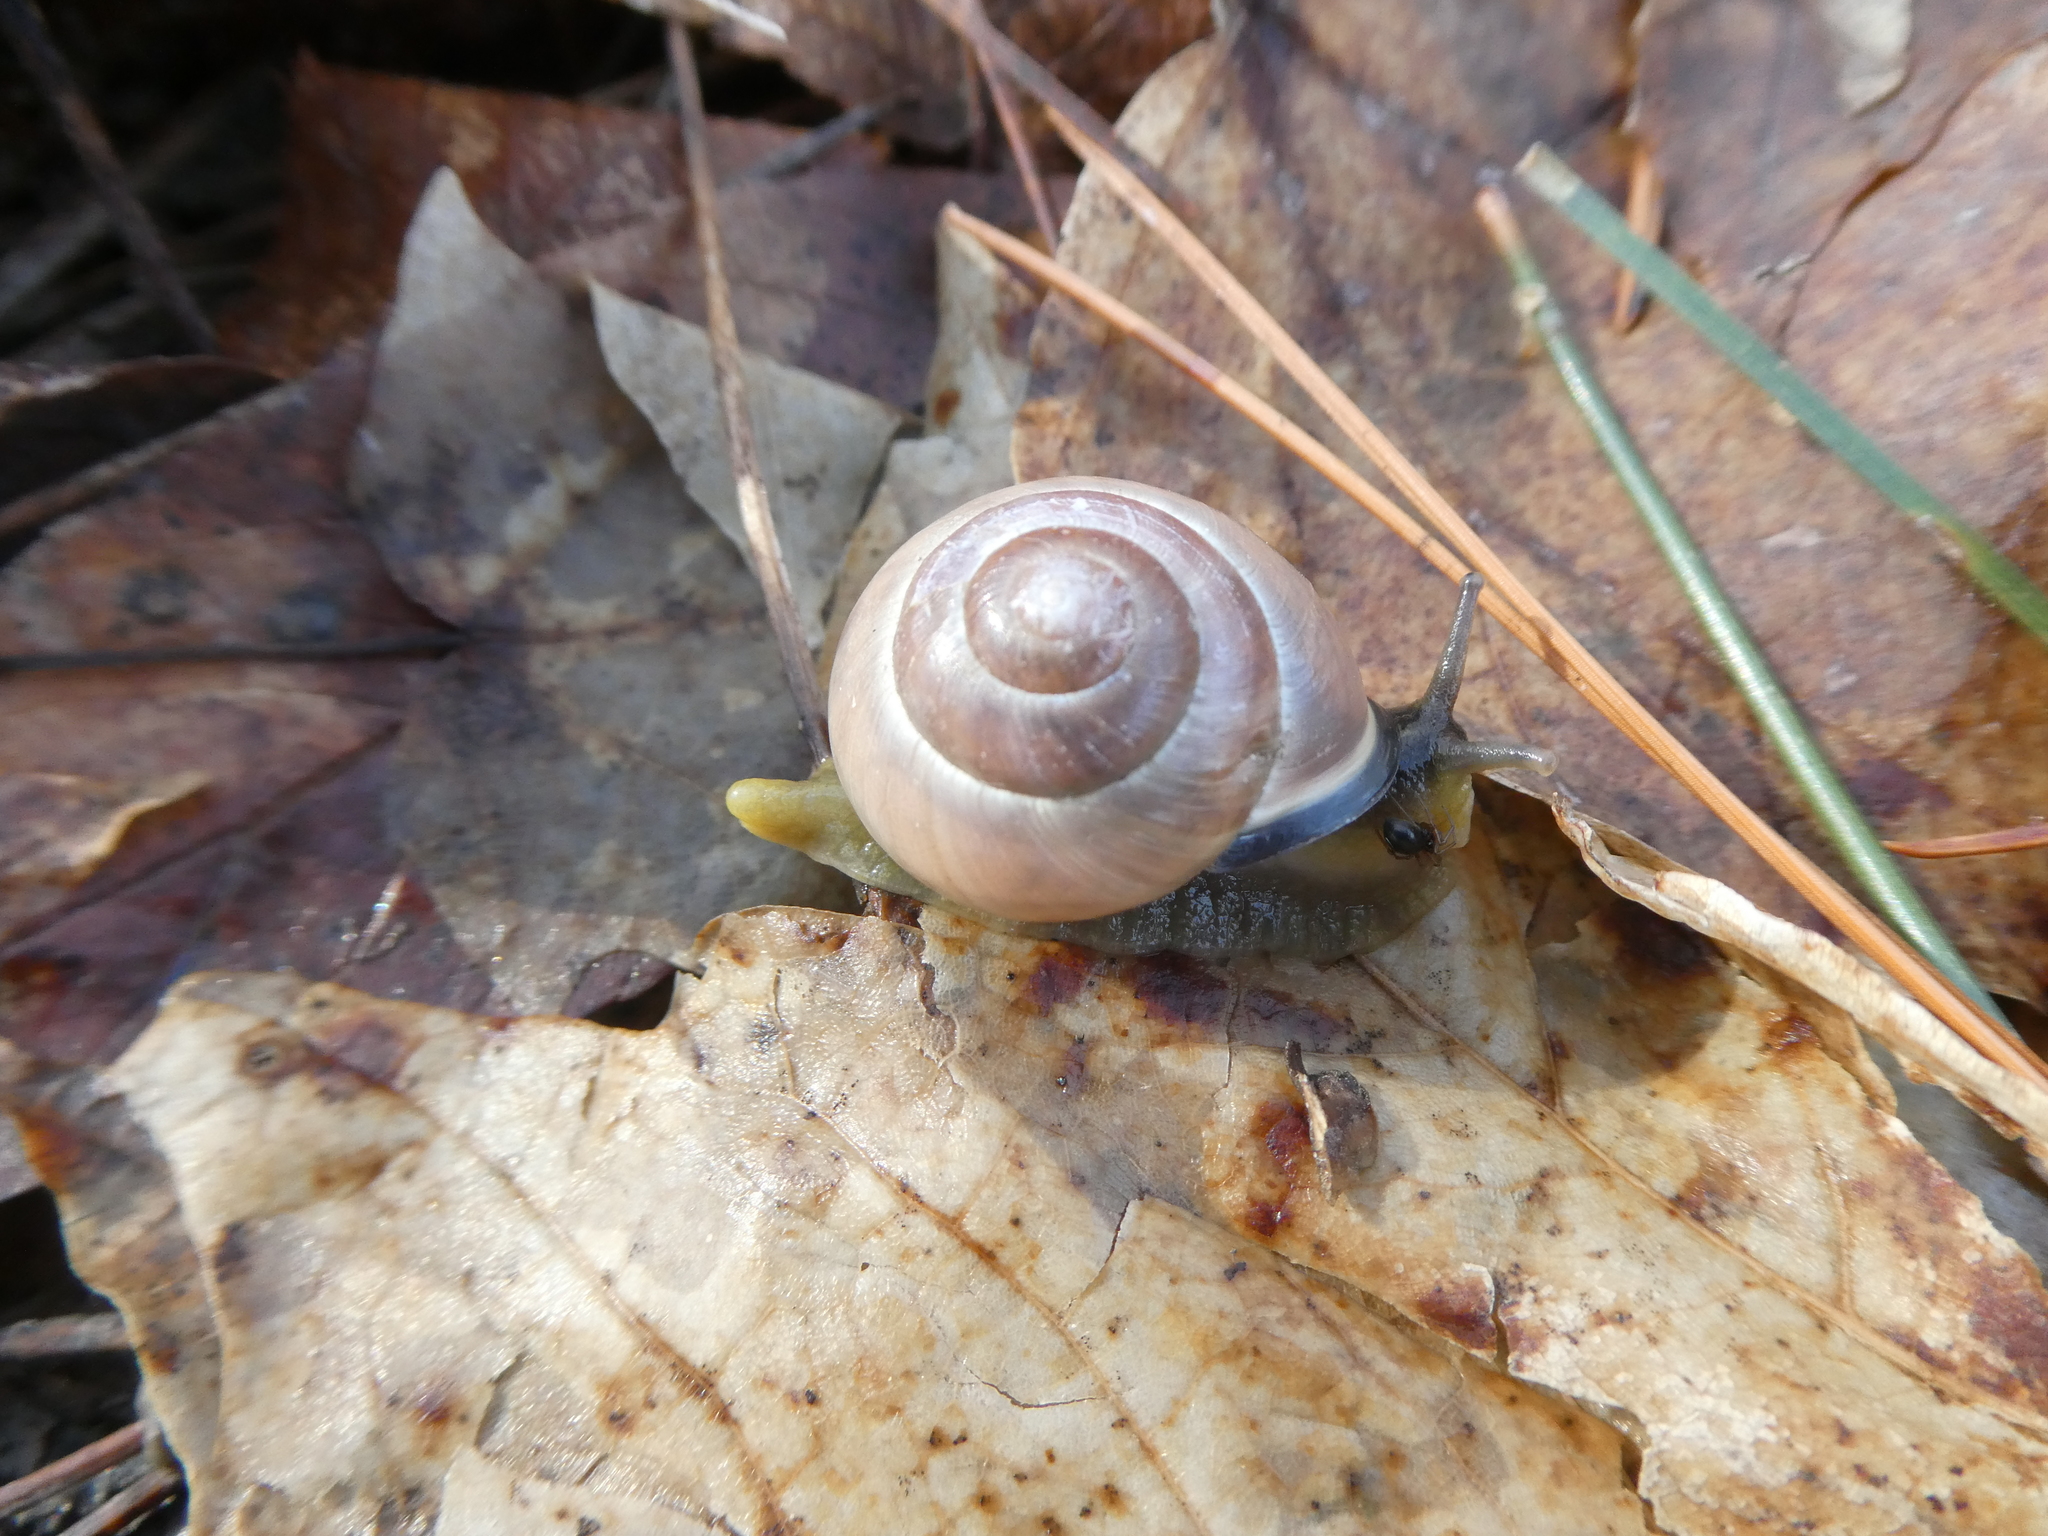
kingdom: Animalia
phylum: Mollusca
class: Gastropoda
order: Stylommatophora
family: Helicidae
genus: Cepaea
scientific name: Cepaea nemoralis
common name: Grovesnail
